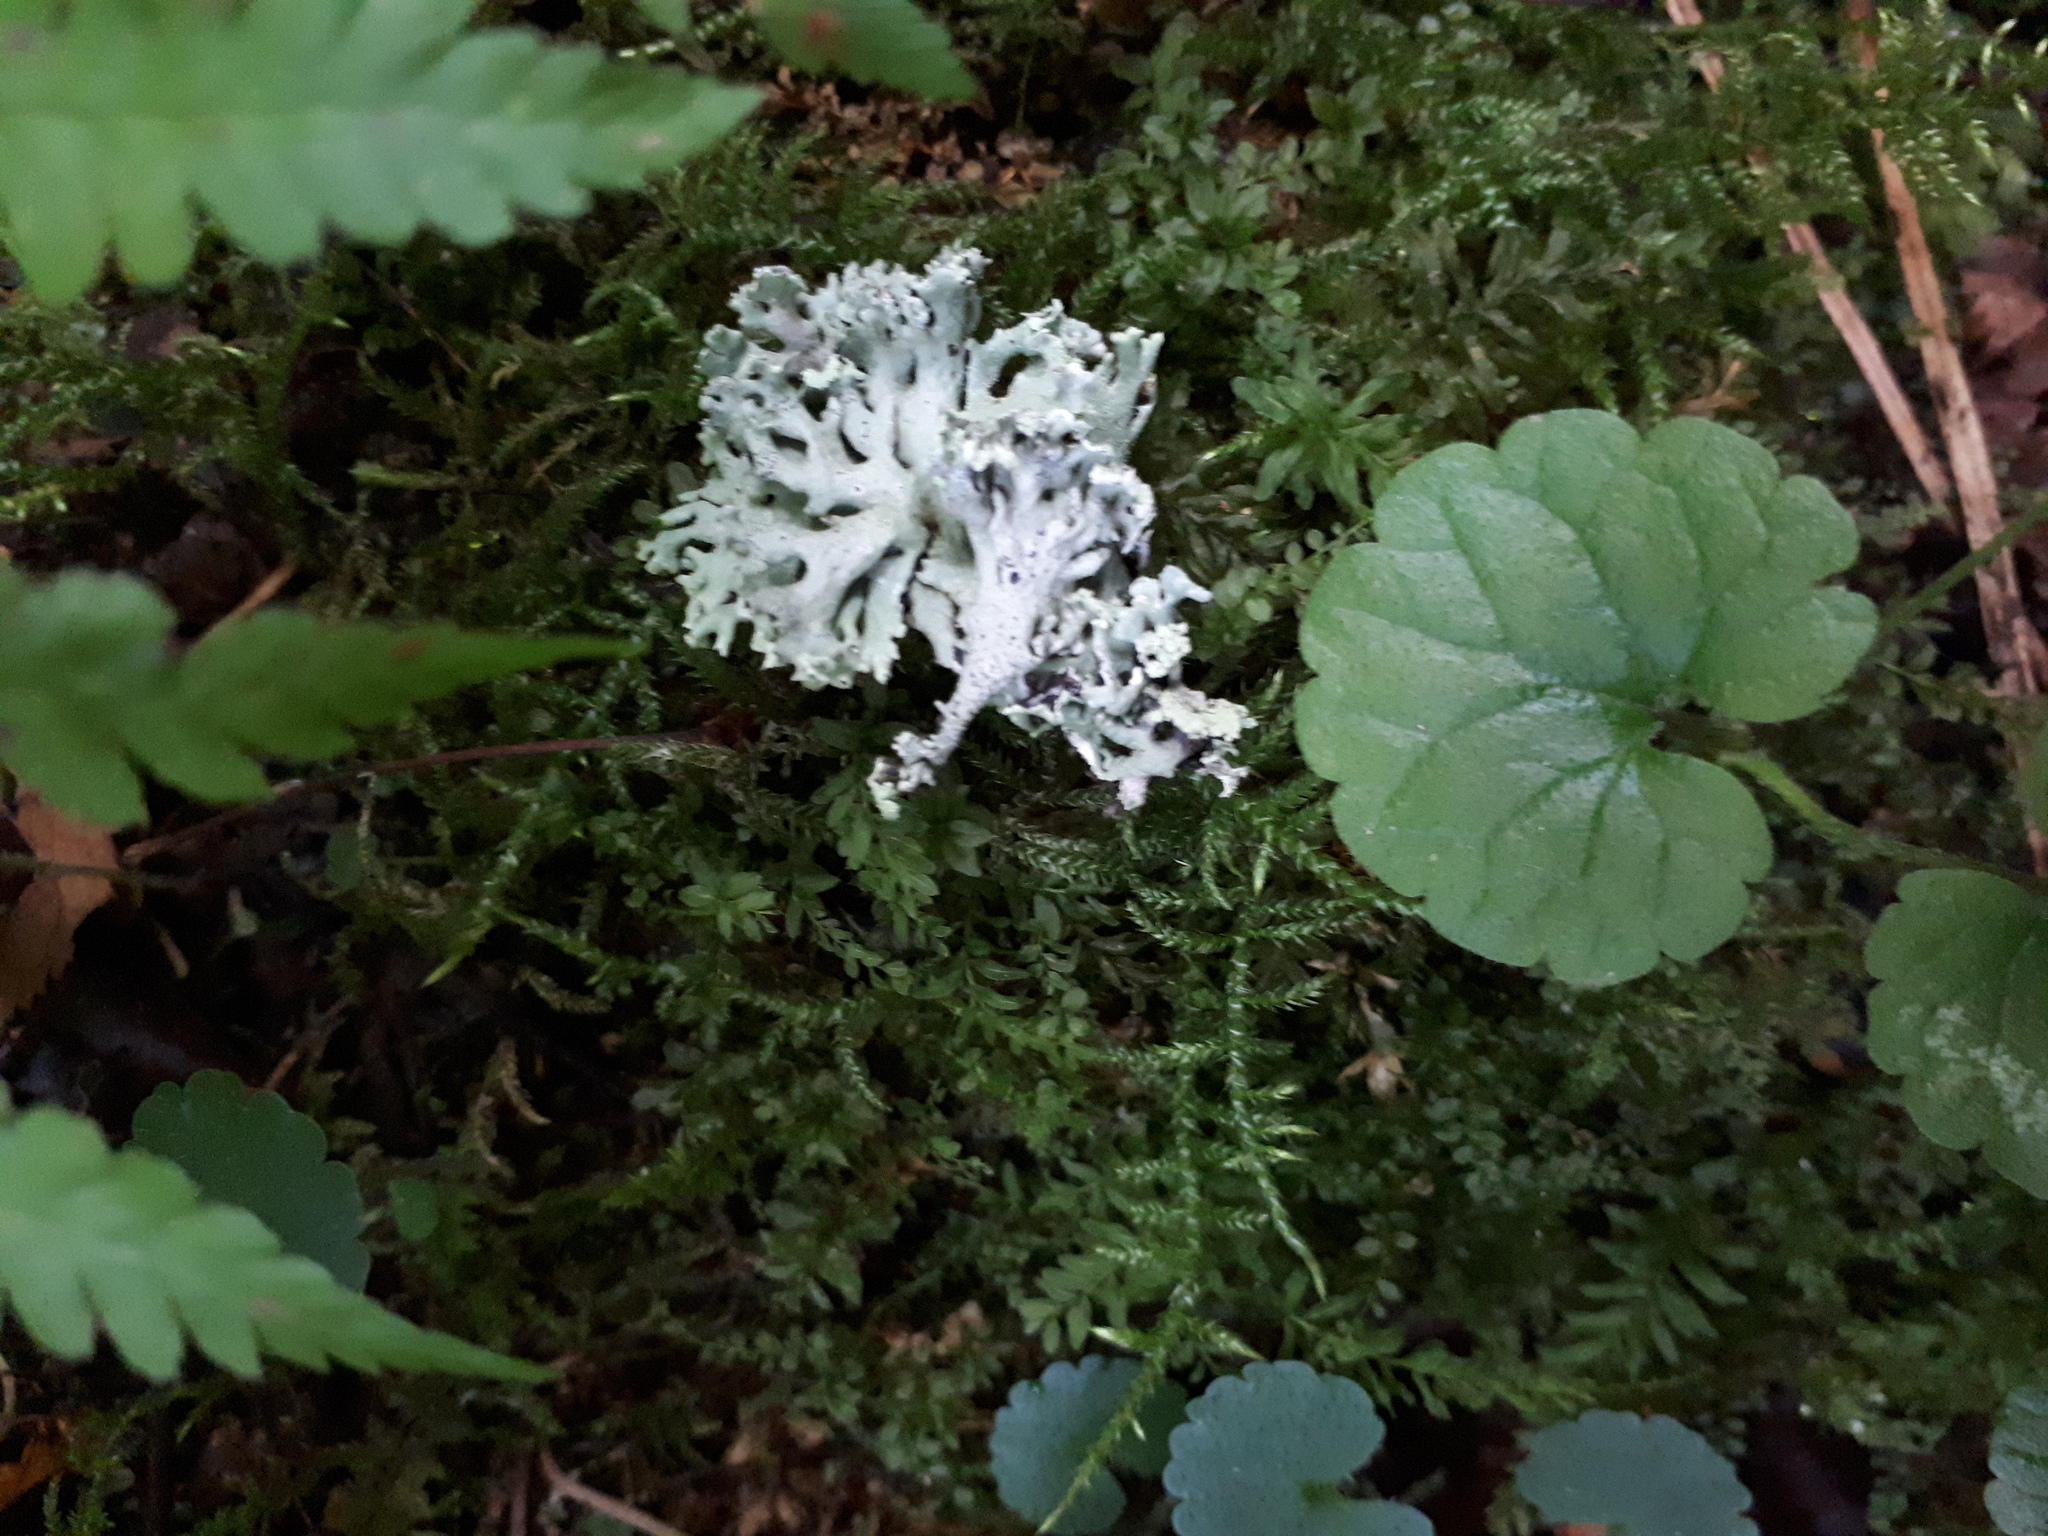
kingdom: Fungi
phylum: Ascomycota
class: Lecanoromycetes
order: Lecanorales
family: Parmeliaceae
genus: Hypogymnia
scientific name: Hypogymnia physodes
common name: Dark crottle
